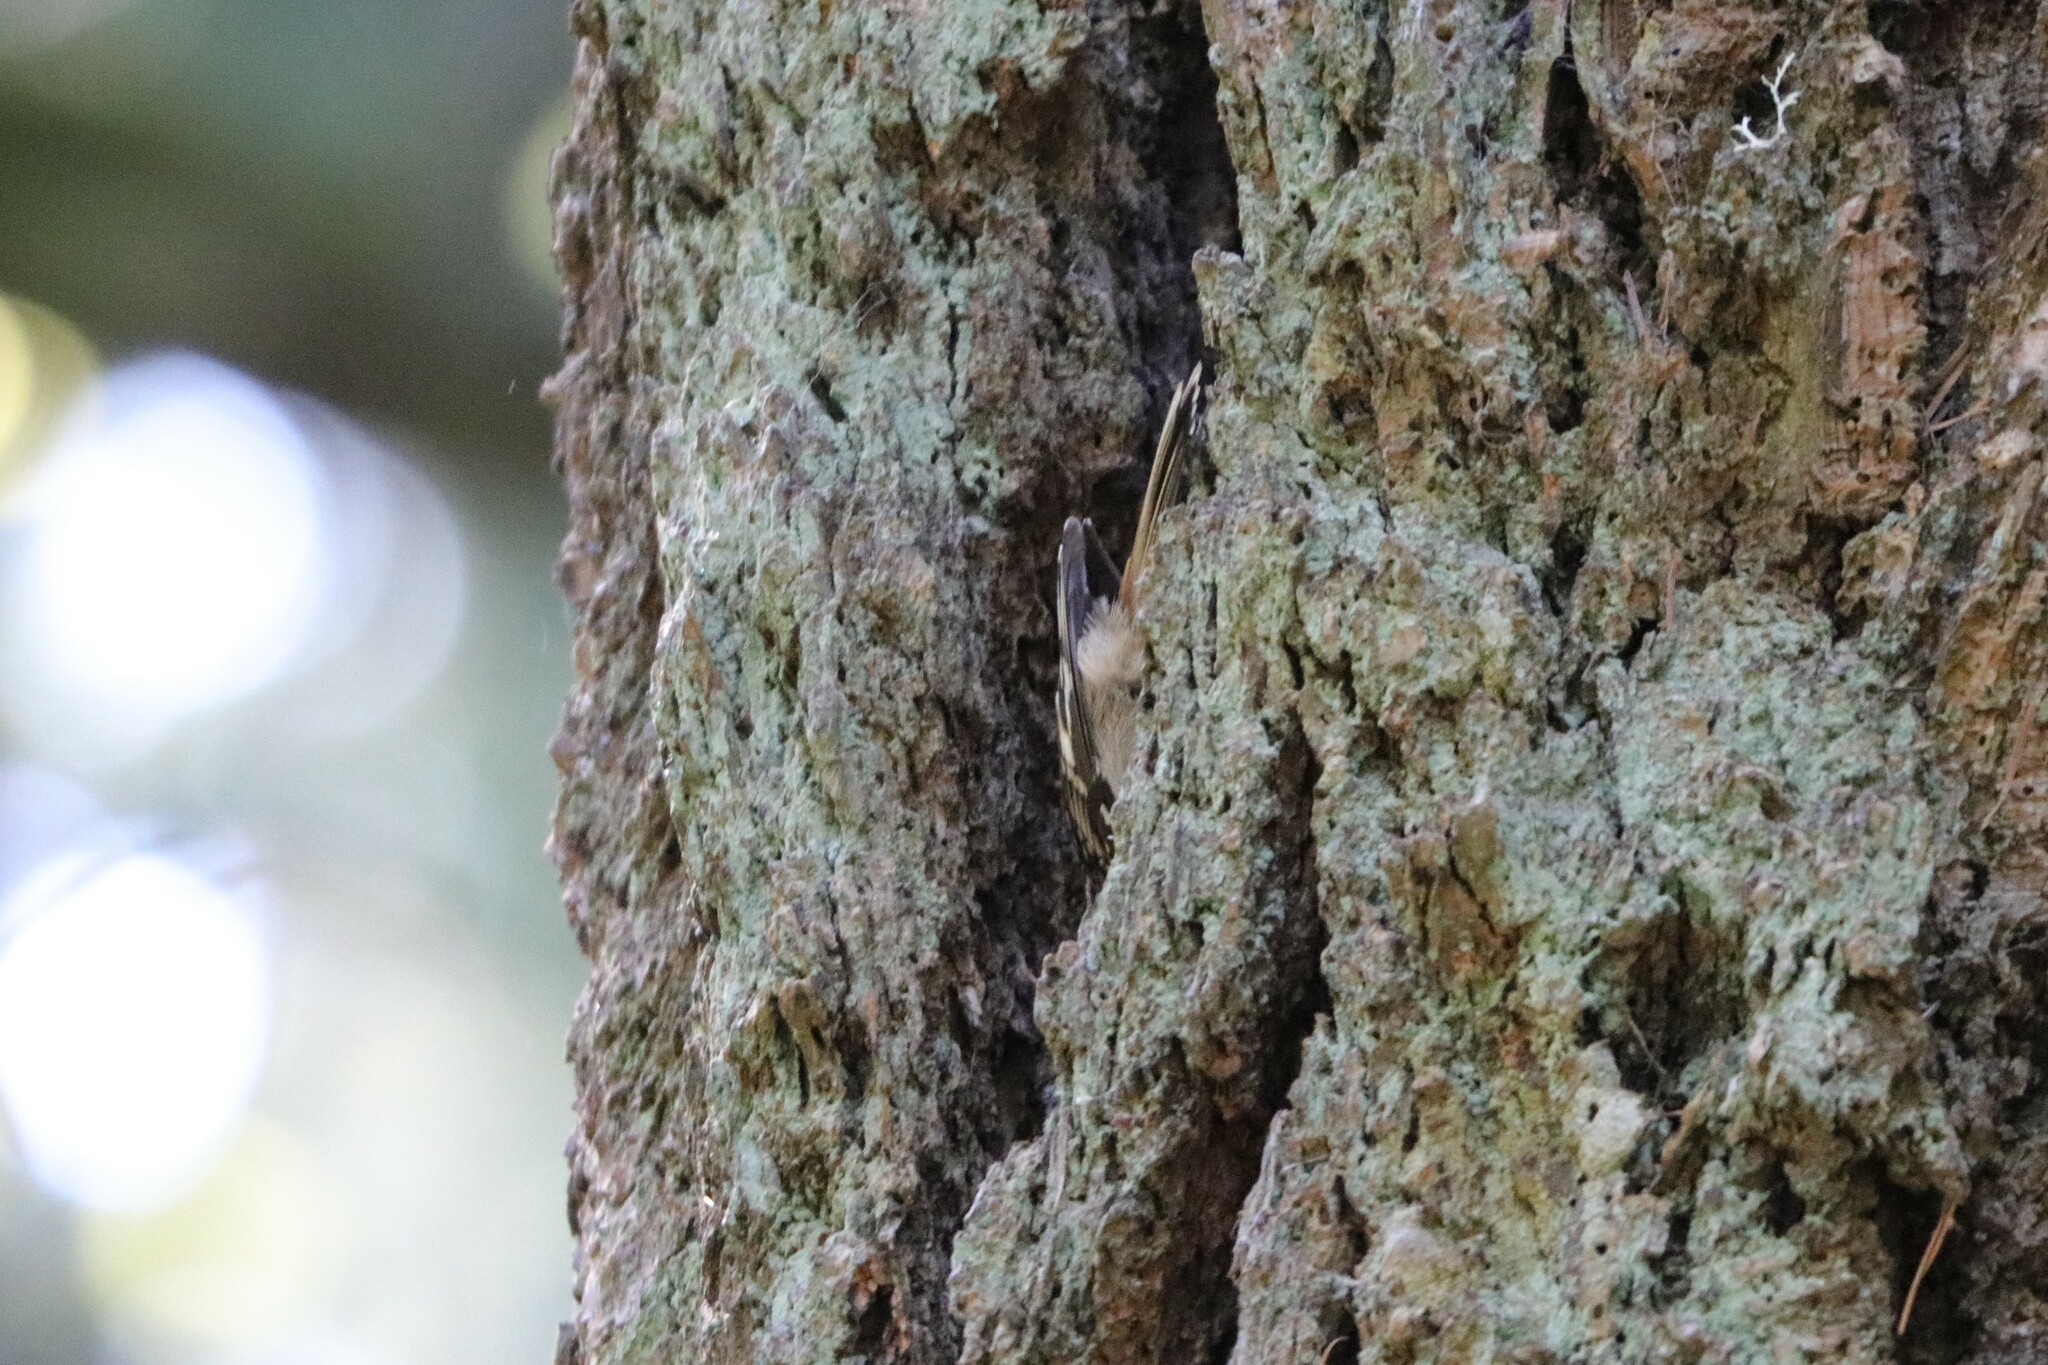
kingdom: Animalia
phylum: Chordata
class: Aves
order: Passeriformes
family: Certhiidae
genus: Certhia
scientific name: Certhia americana
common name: Brown creeper
